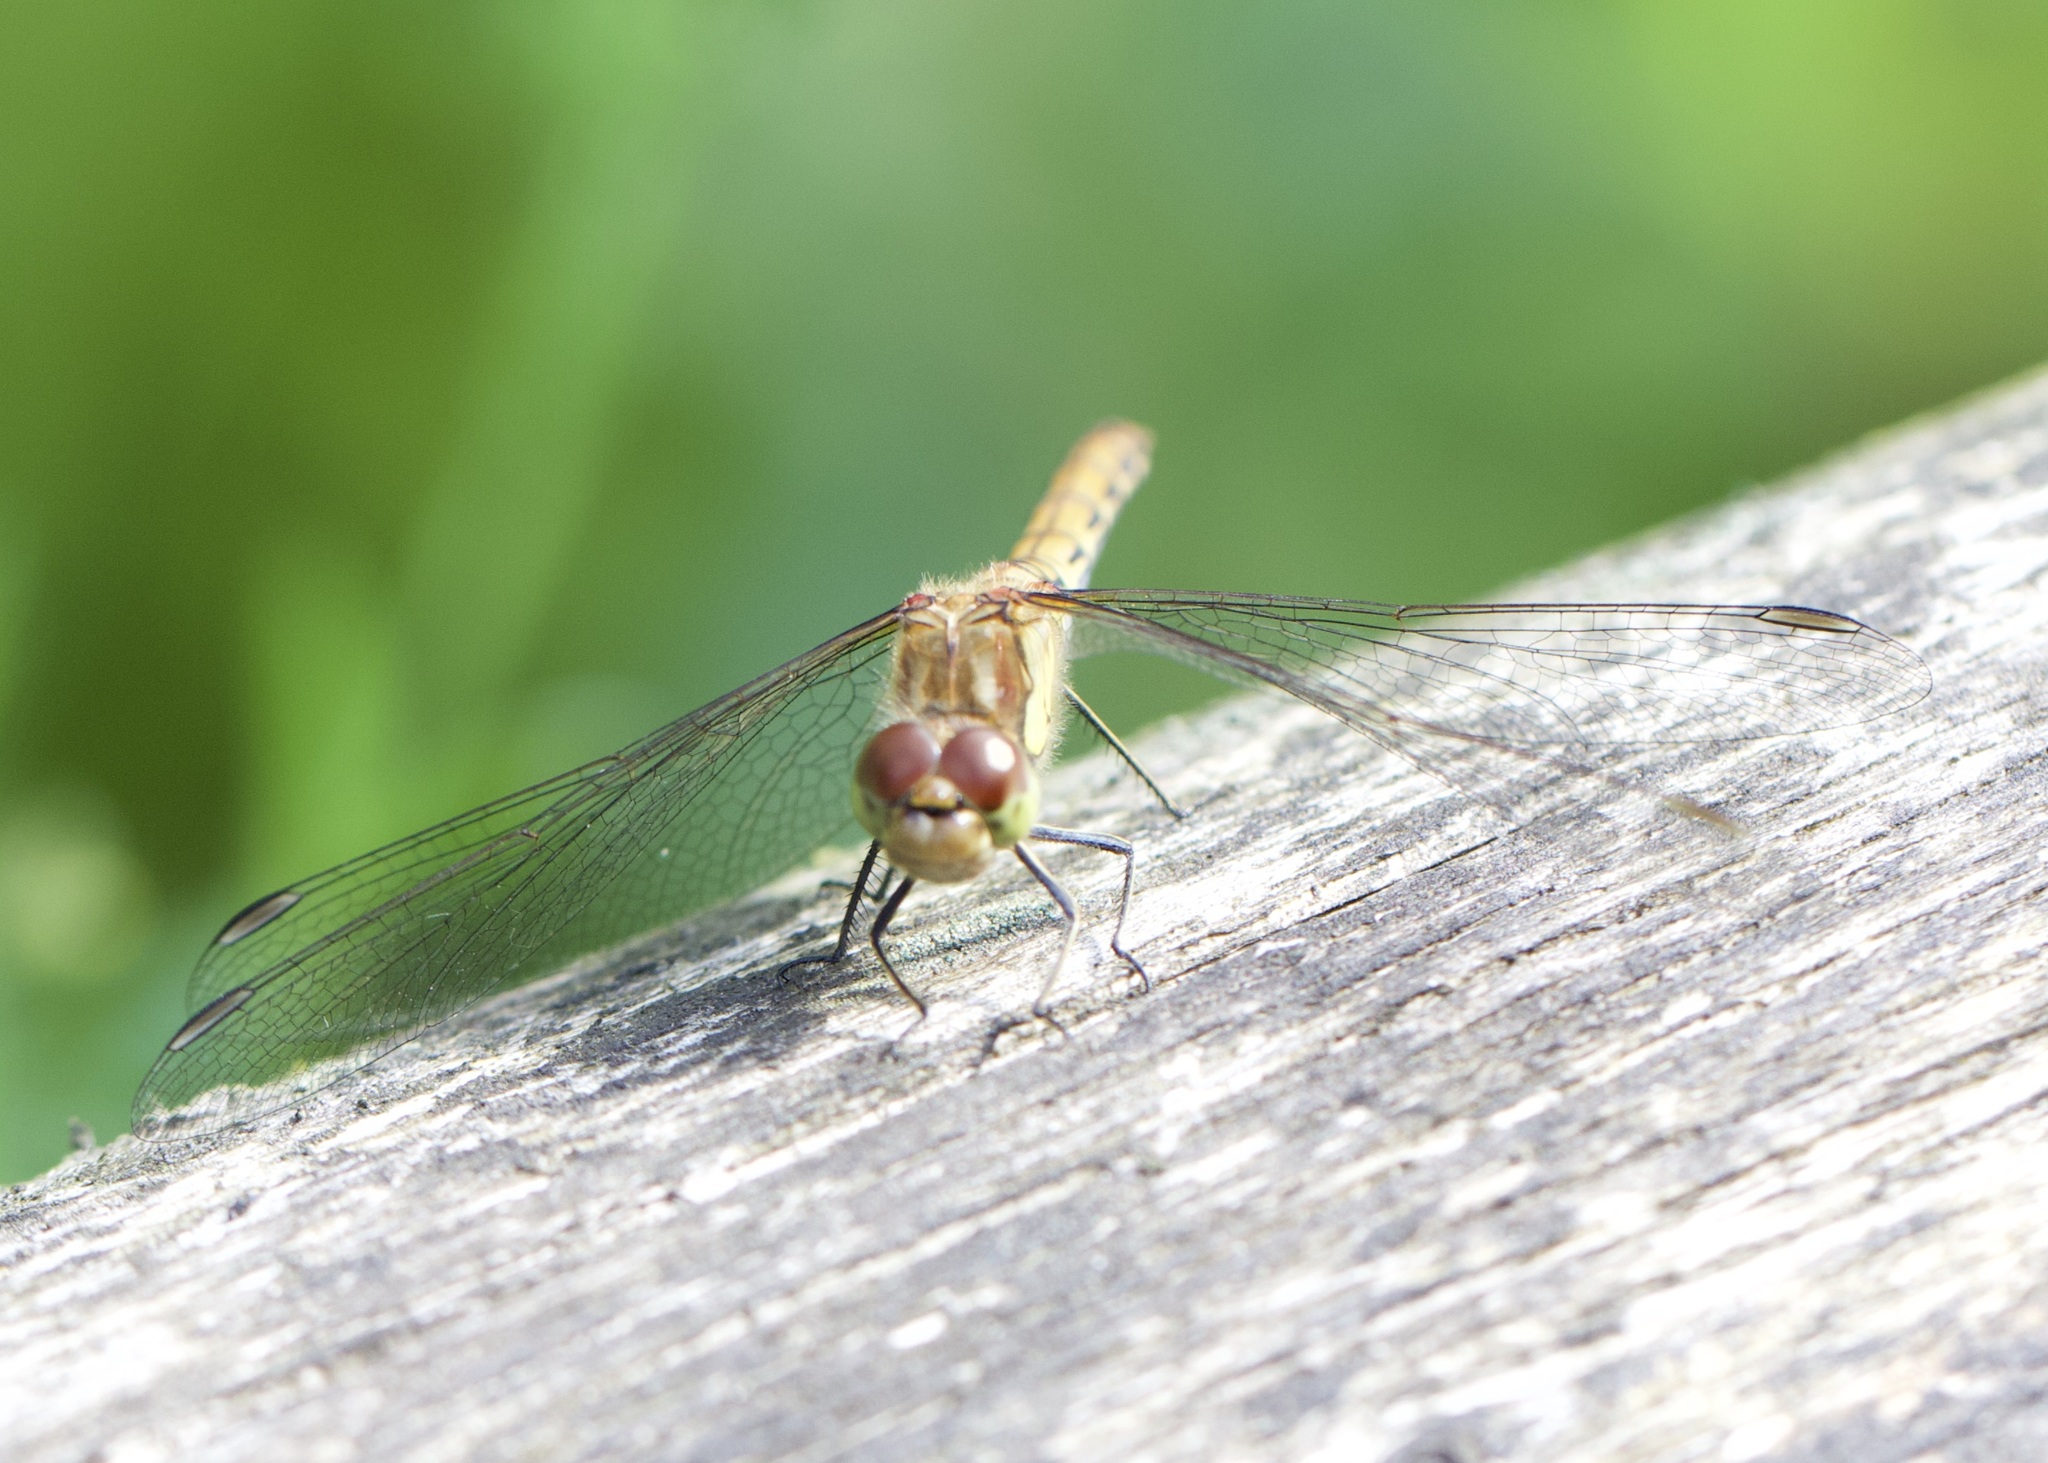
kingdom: Animalia
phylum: Arthropoda
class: Insecta
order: Odonata
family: Libellulidae
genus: Sympetrum
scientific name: Sympetrum striolatum
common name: Common darter
